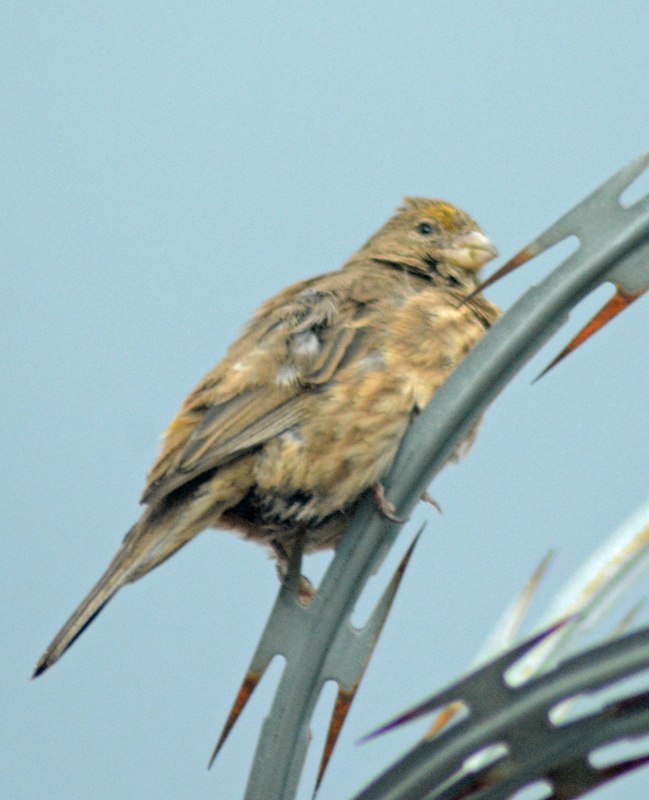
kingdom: Animalia
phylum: Chordata
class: Aves
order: Passeriformes
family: Fringillidae
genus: Haemorhous
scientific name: Haemorhous mexicanus
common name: House finch
